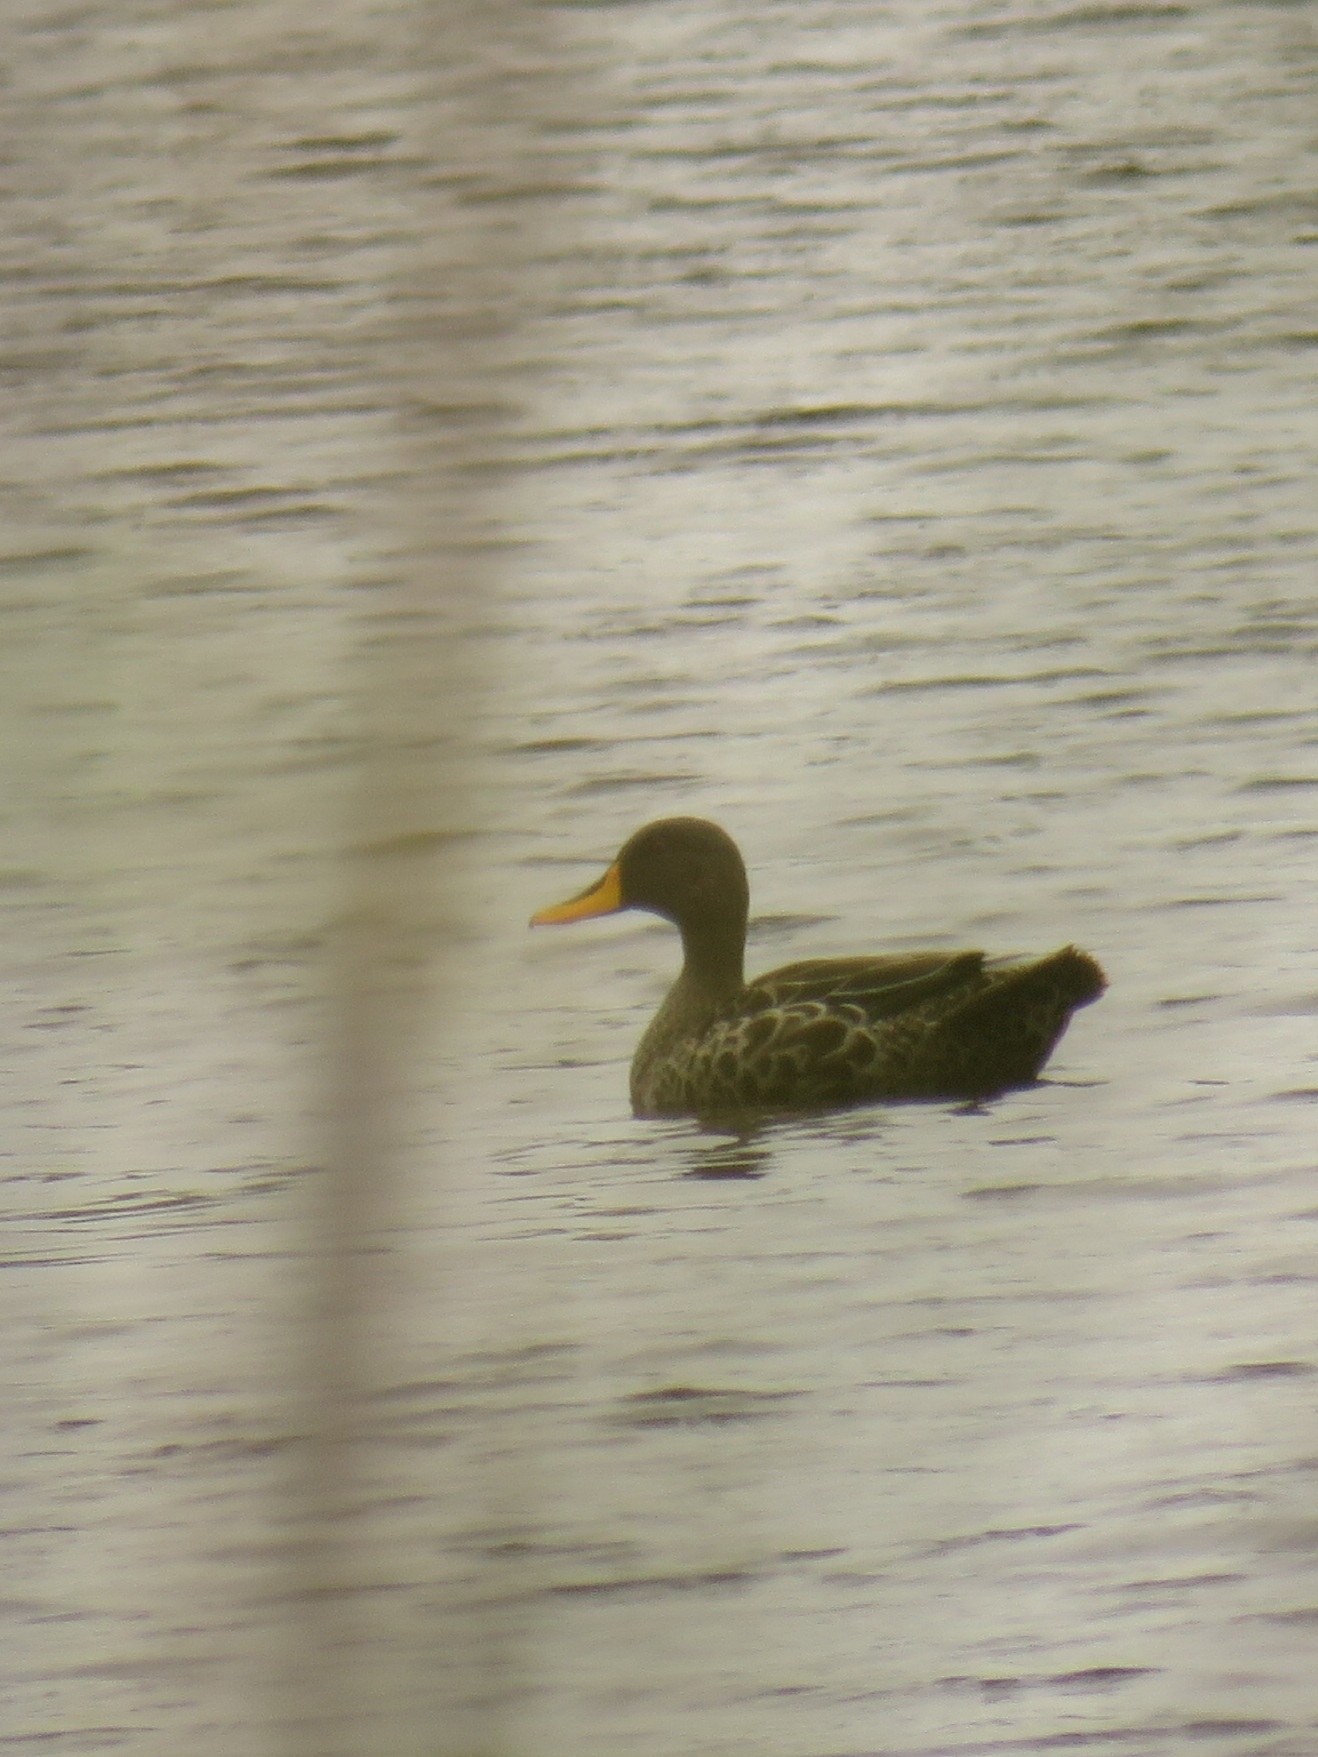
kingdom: Animalia
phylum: Chordata
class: Aves
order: Anseriformes
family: Anatidae
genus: Anas
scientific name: Anas undulata
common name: Yellow-billed duck
